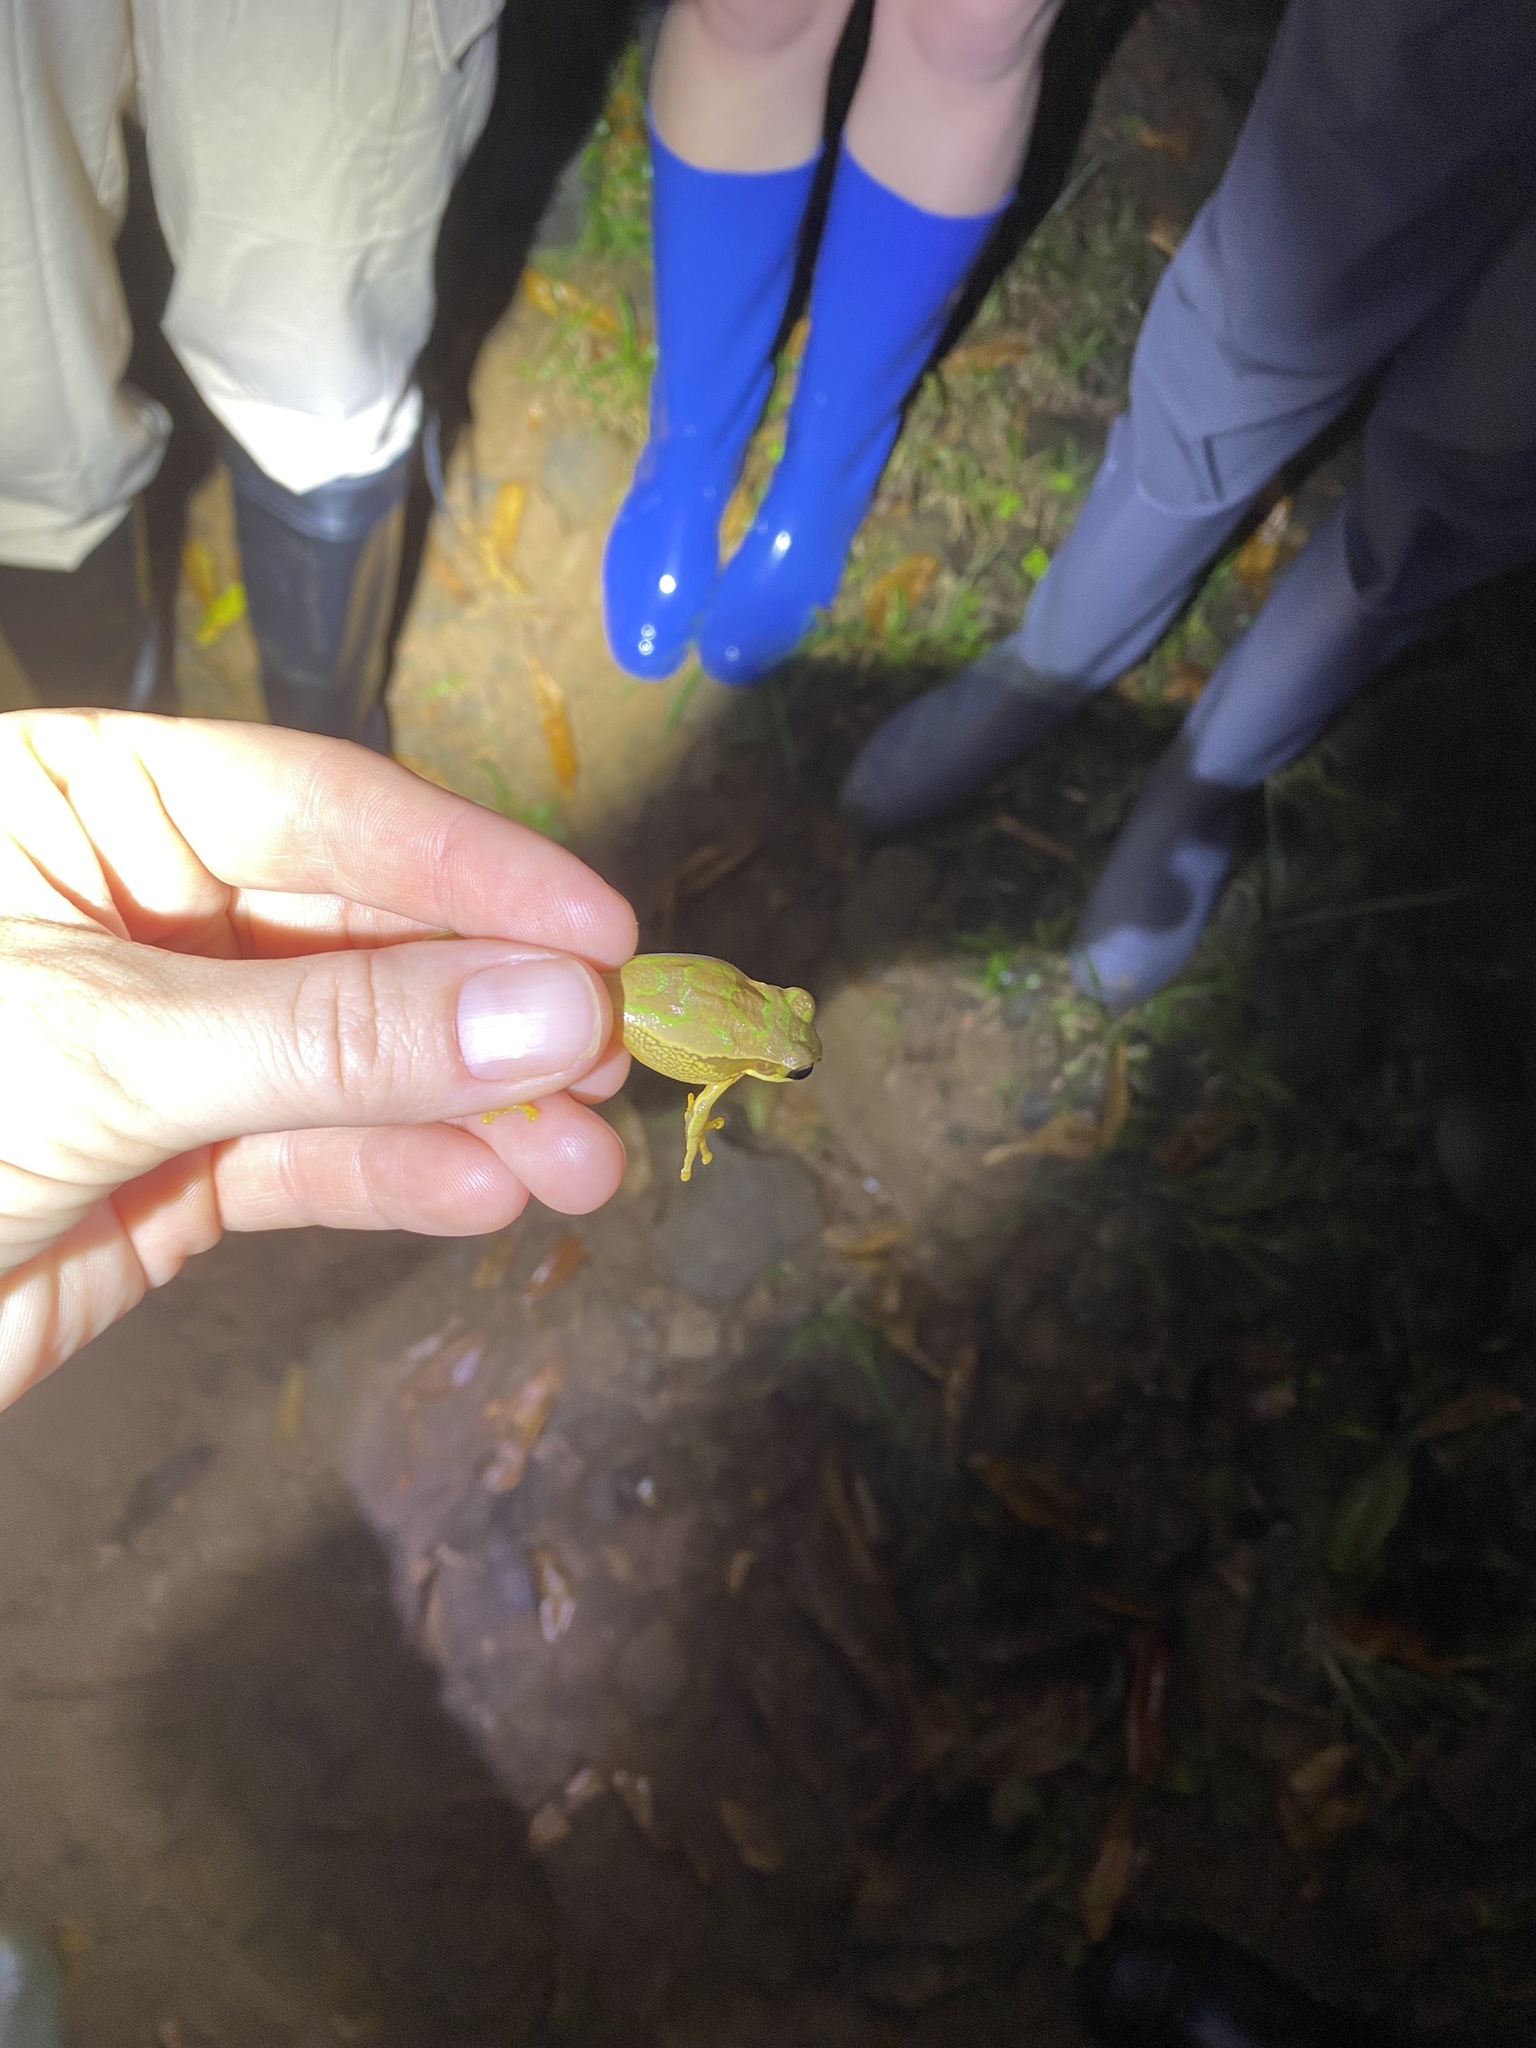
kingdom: Animalia
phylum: Chordata
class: Amphibia
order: Anura
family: Hylidae
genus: Smilisca
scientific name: Smilisca phaeota
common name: Central american smilisca
